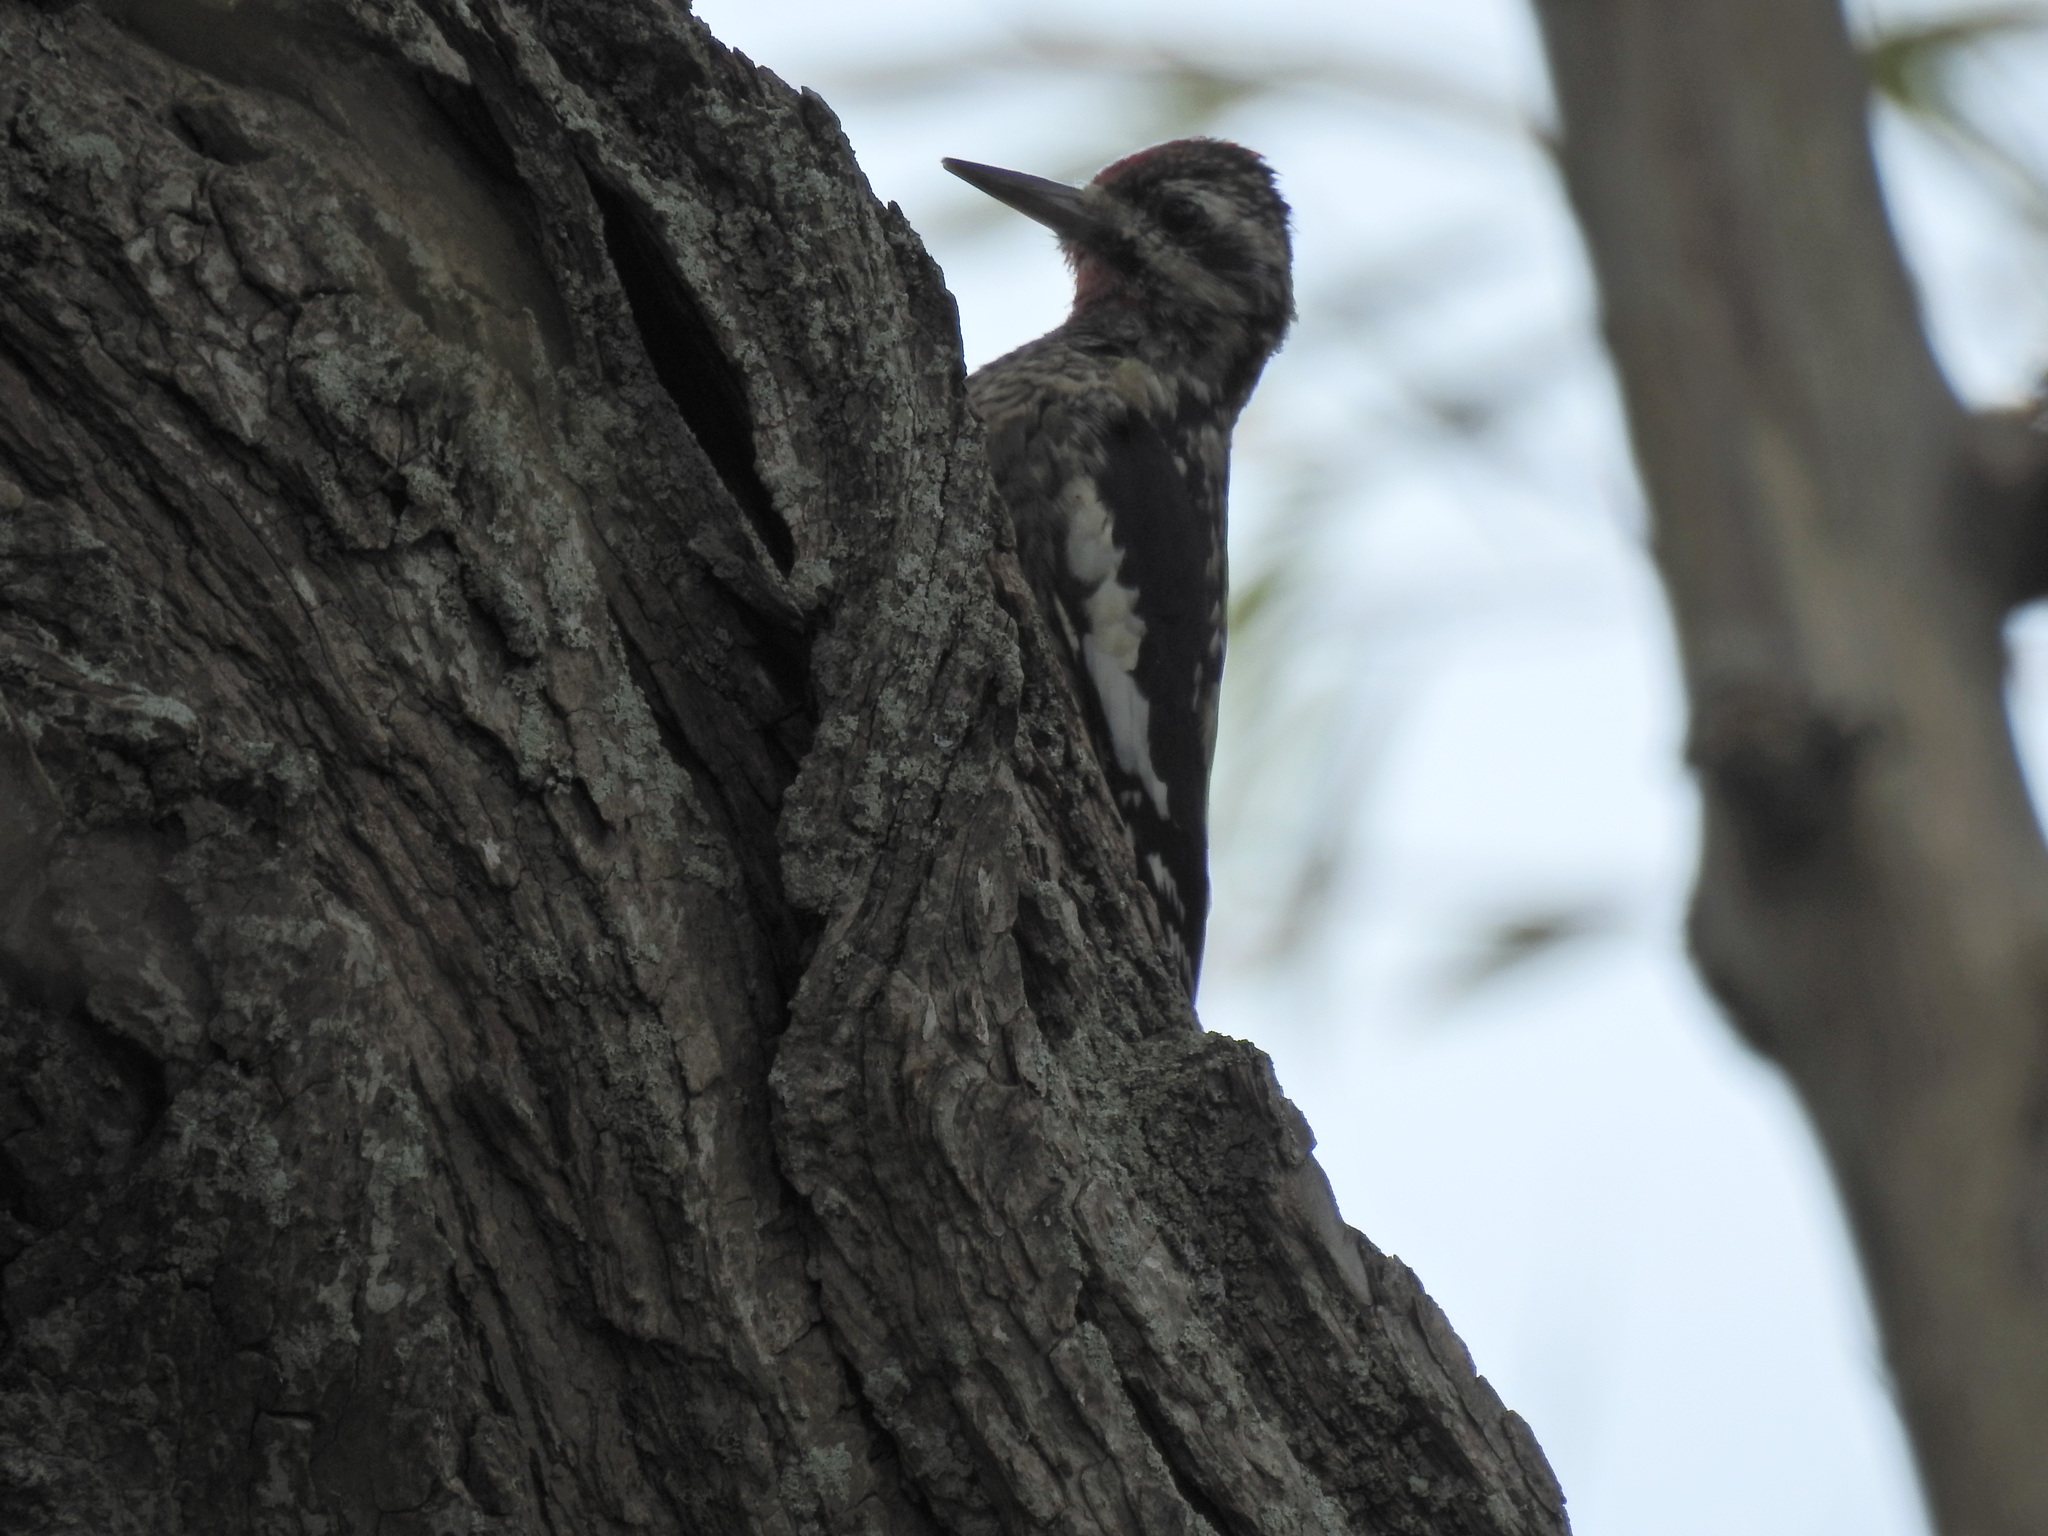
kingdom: Animalia
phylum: Chordata
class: Aves
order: Piciformes
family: Picidae
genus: Sphyrapicus
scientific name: Sphyrapicus varius
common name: Yellow-bellied sapsucker
